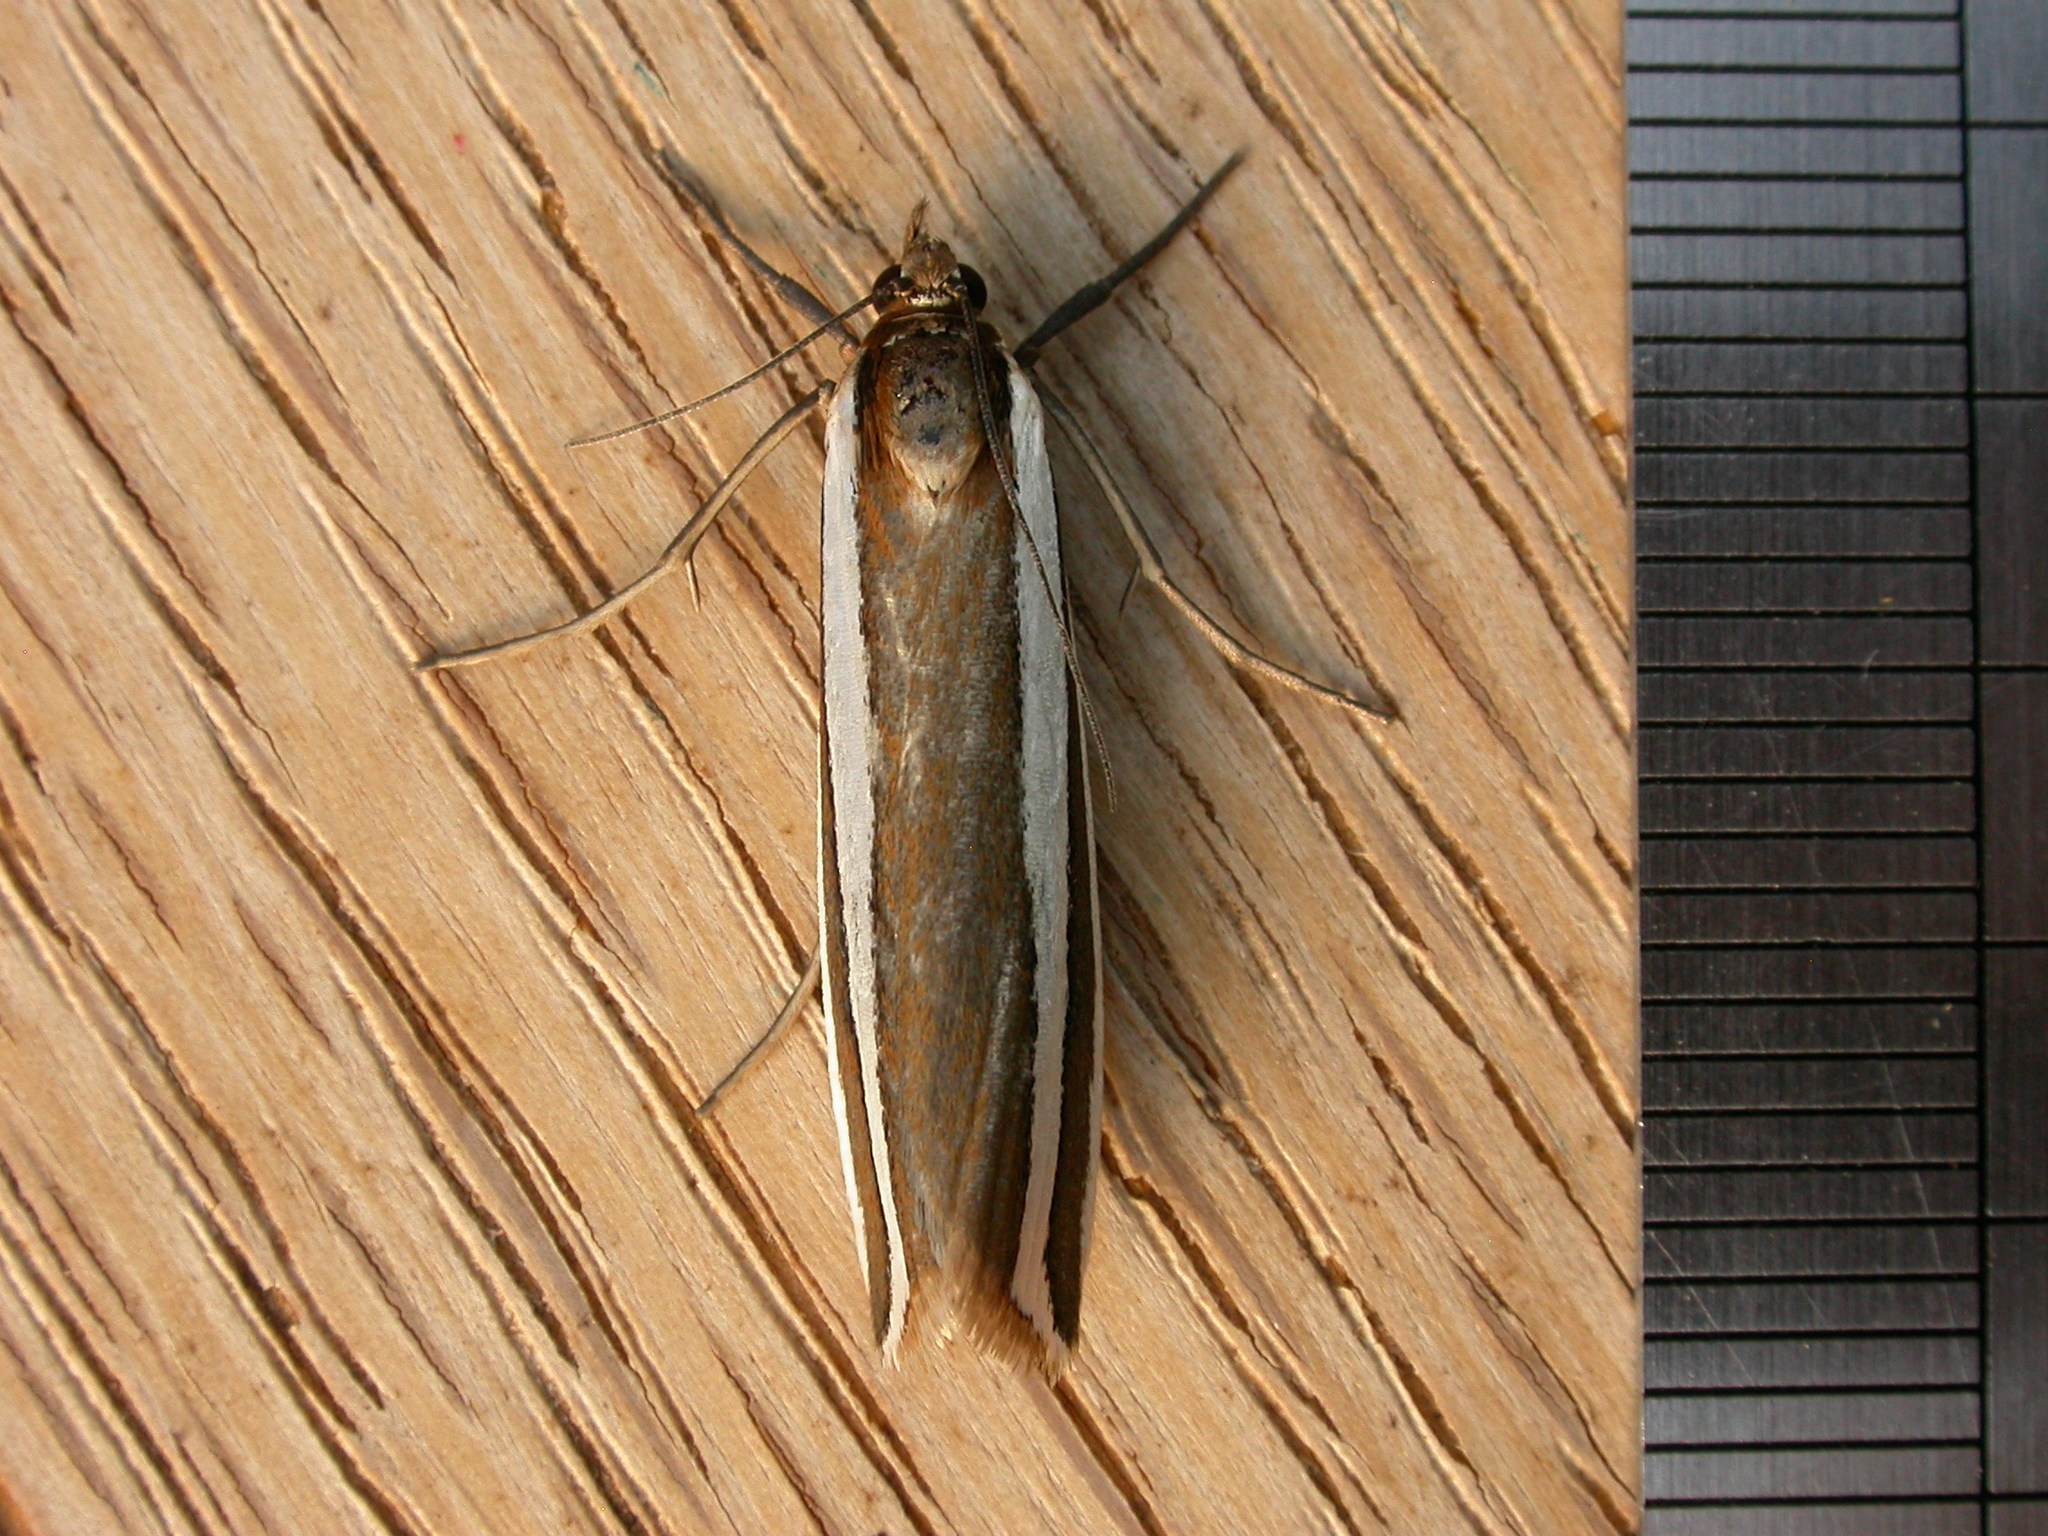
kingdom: Animalia
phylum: Arthropoda
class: Insecta
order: Lepidoptera
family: Crambidae
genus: Corynophora
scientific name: Corynophora lativittalis
